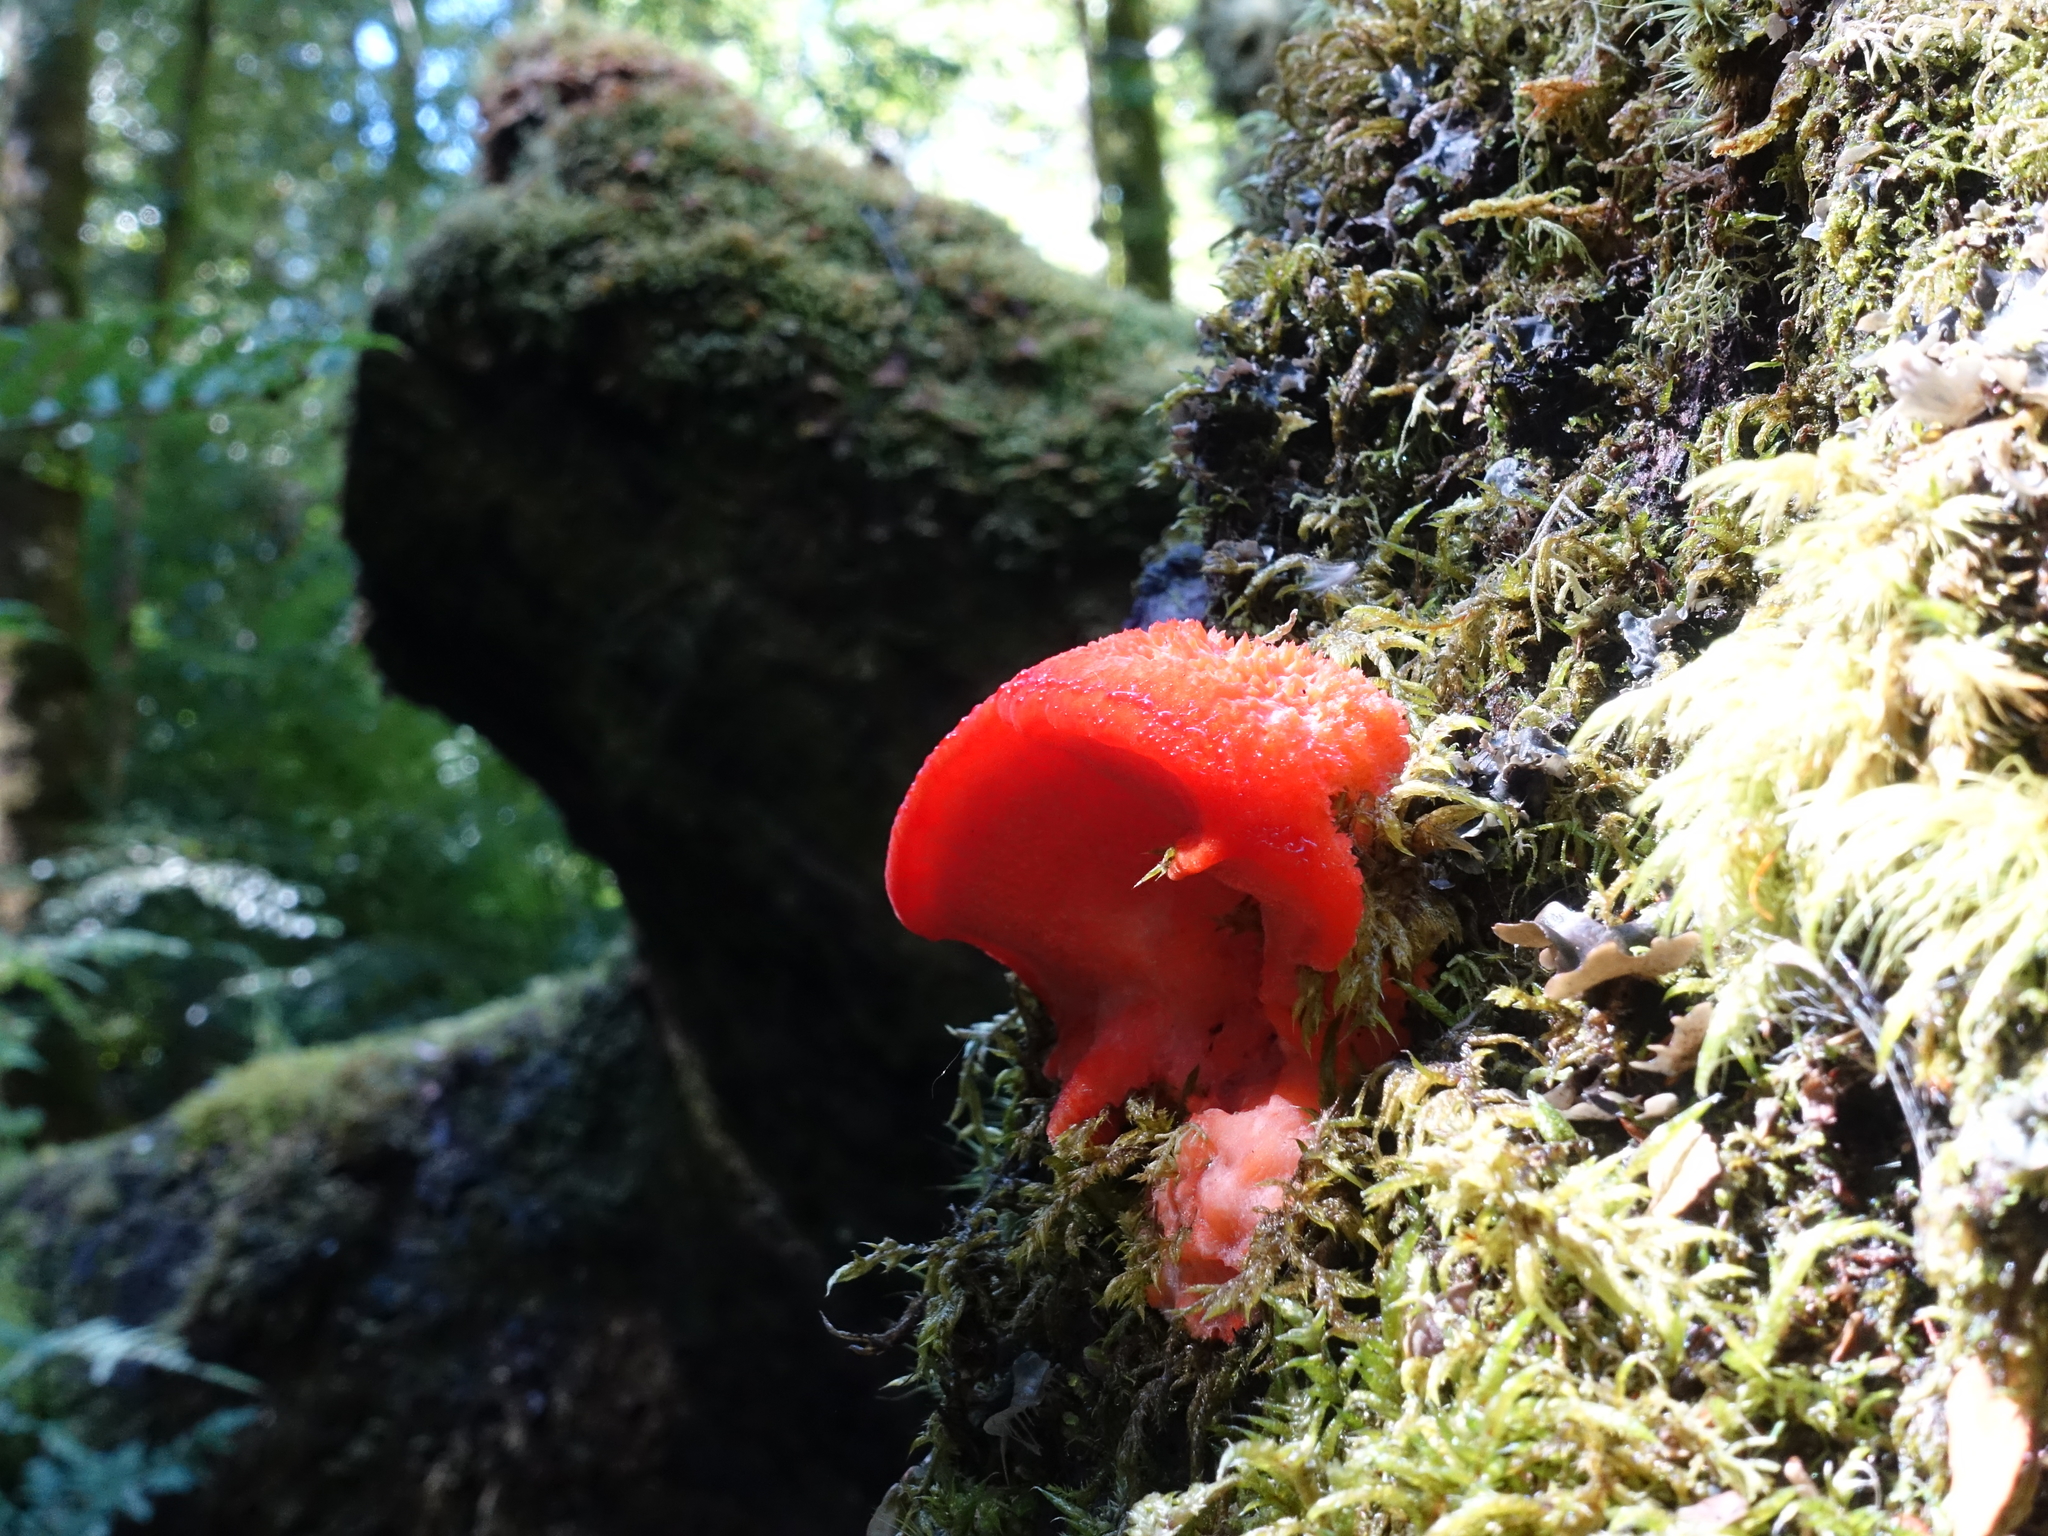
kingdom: Fungi
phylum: Basidiomycota
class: Agaricomycetes
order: Polyporales
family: Incrustoporiaceae
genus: Tyromyces
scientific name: Tyromyces pulcherrimus
